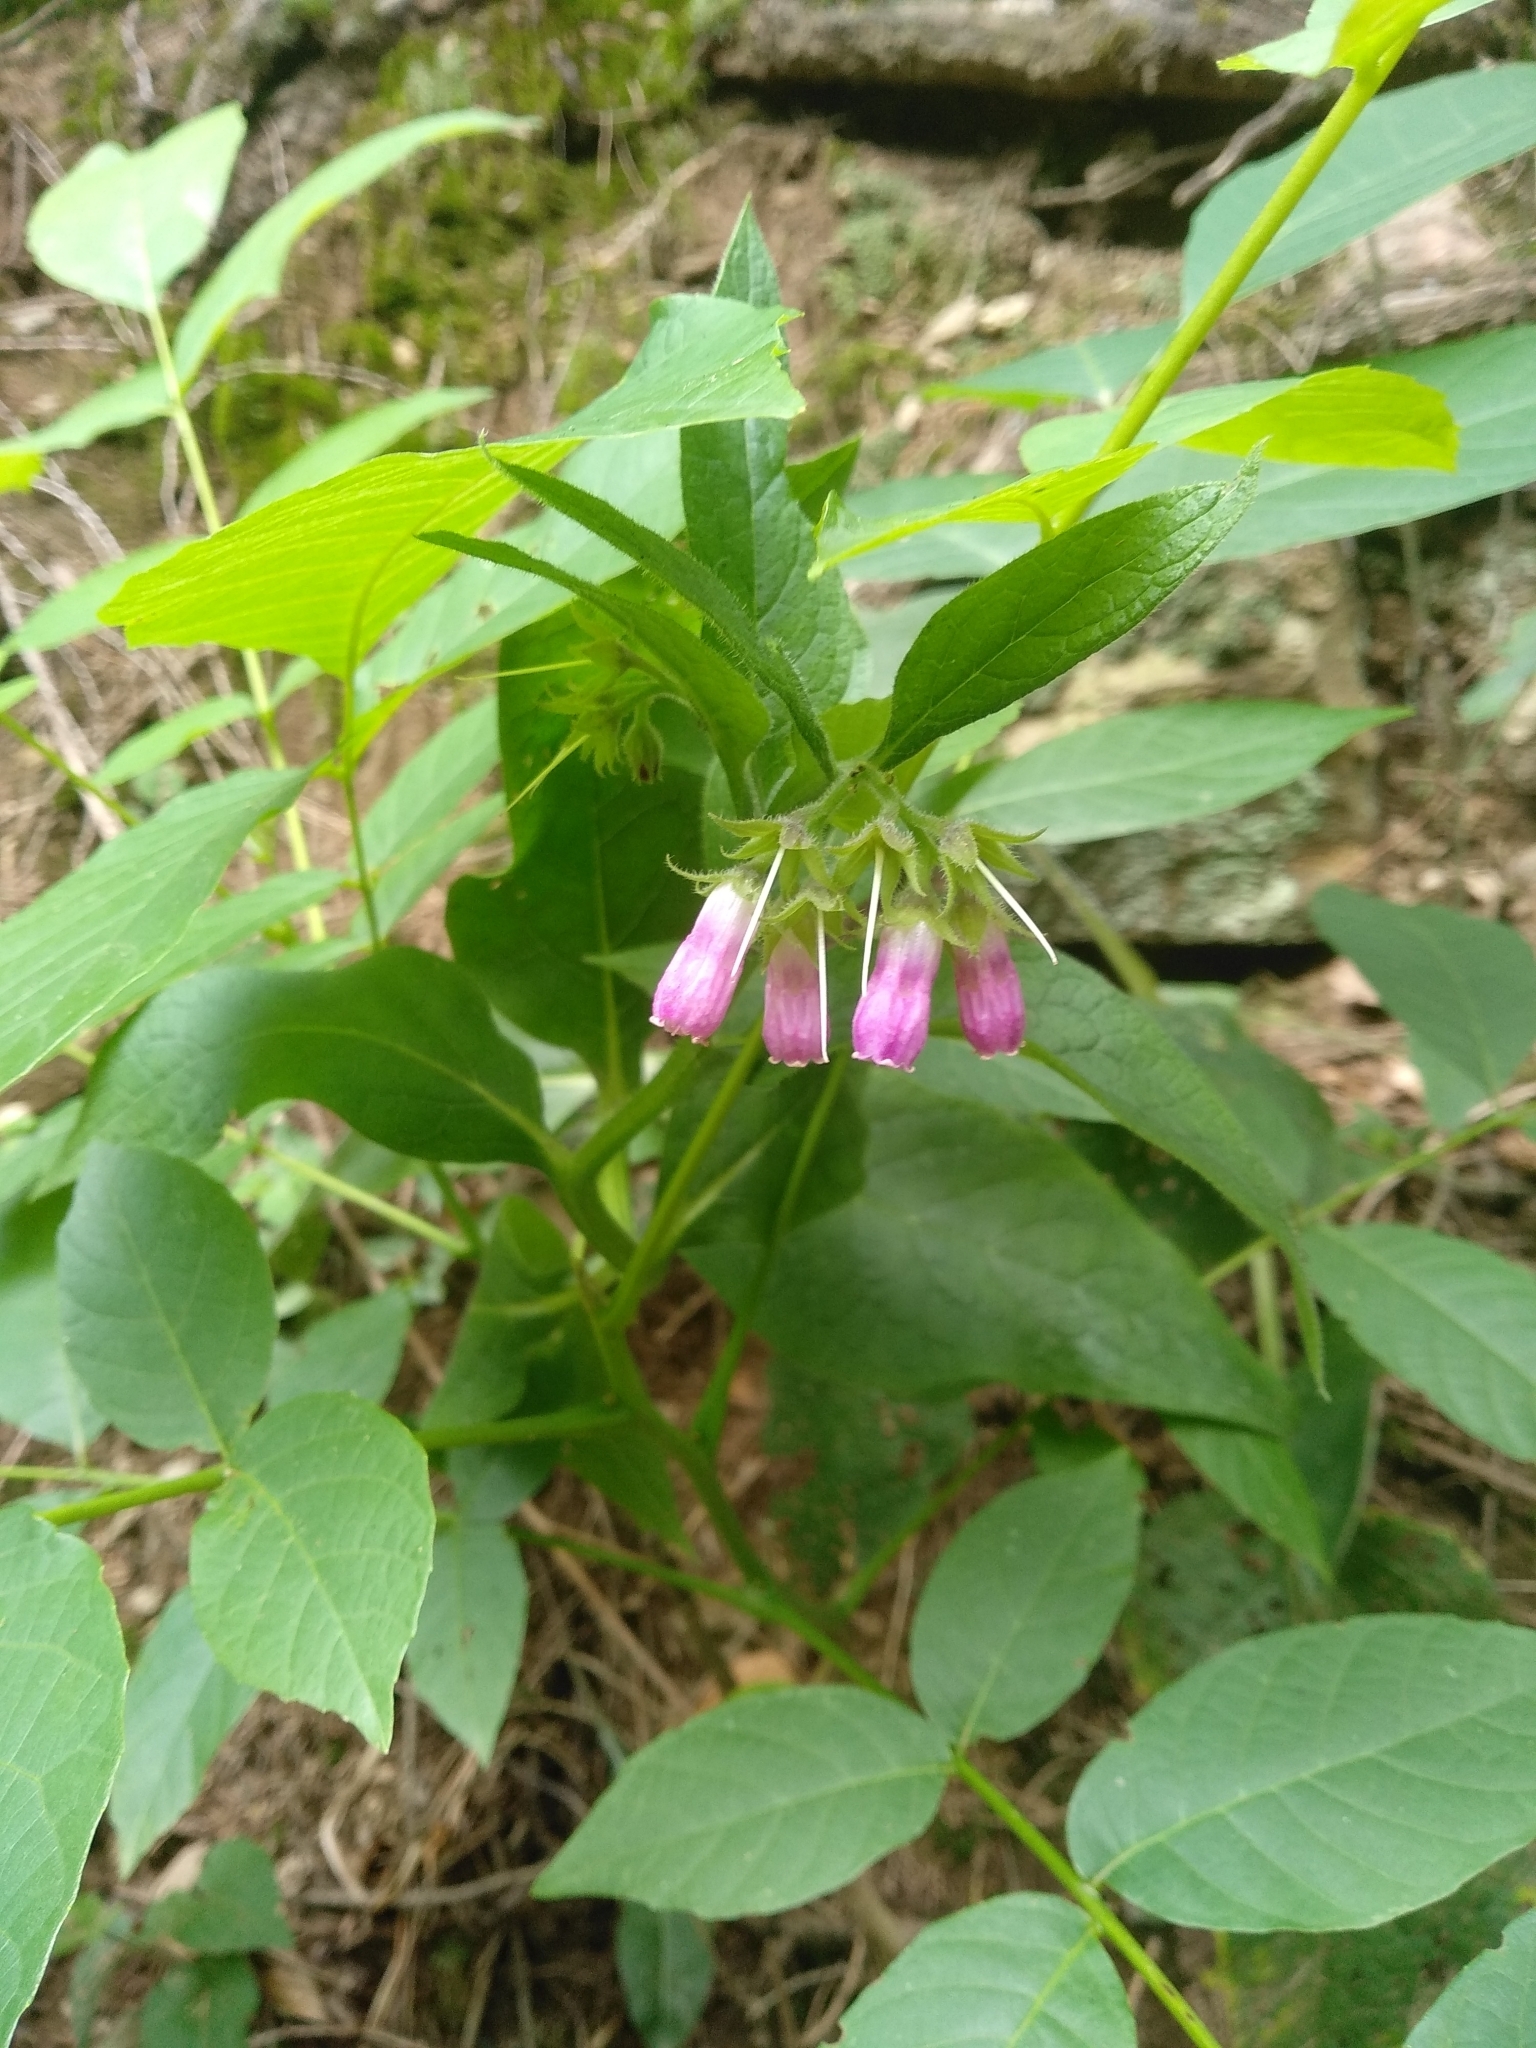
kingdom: Plantae
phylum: Tracheophyta
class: Magnoliopsida
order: Boraginales
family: Boraginaceae
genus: Symphytum
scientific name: Symphytum officinale
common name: Common comfrey
